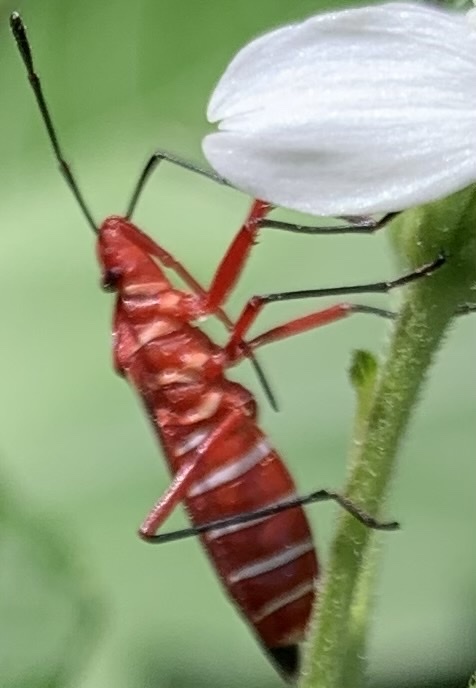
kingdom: Animalia
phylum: Arthropoda
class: Insecta
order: Hemiptera
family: Pyrrhocoridae
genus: Dysdercus
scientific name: Dysdercus suturellus
